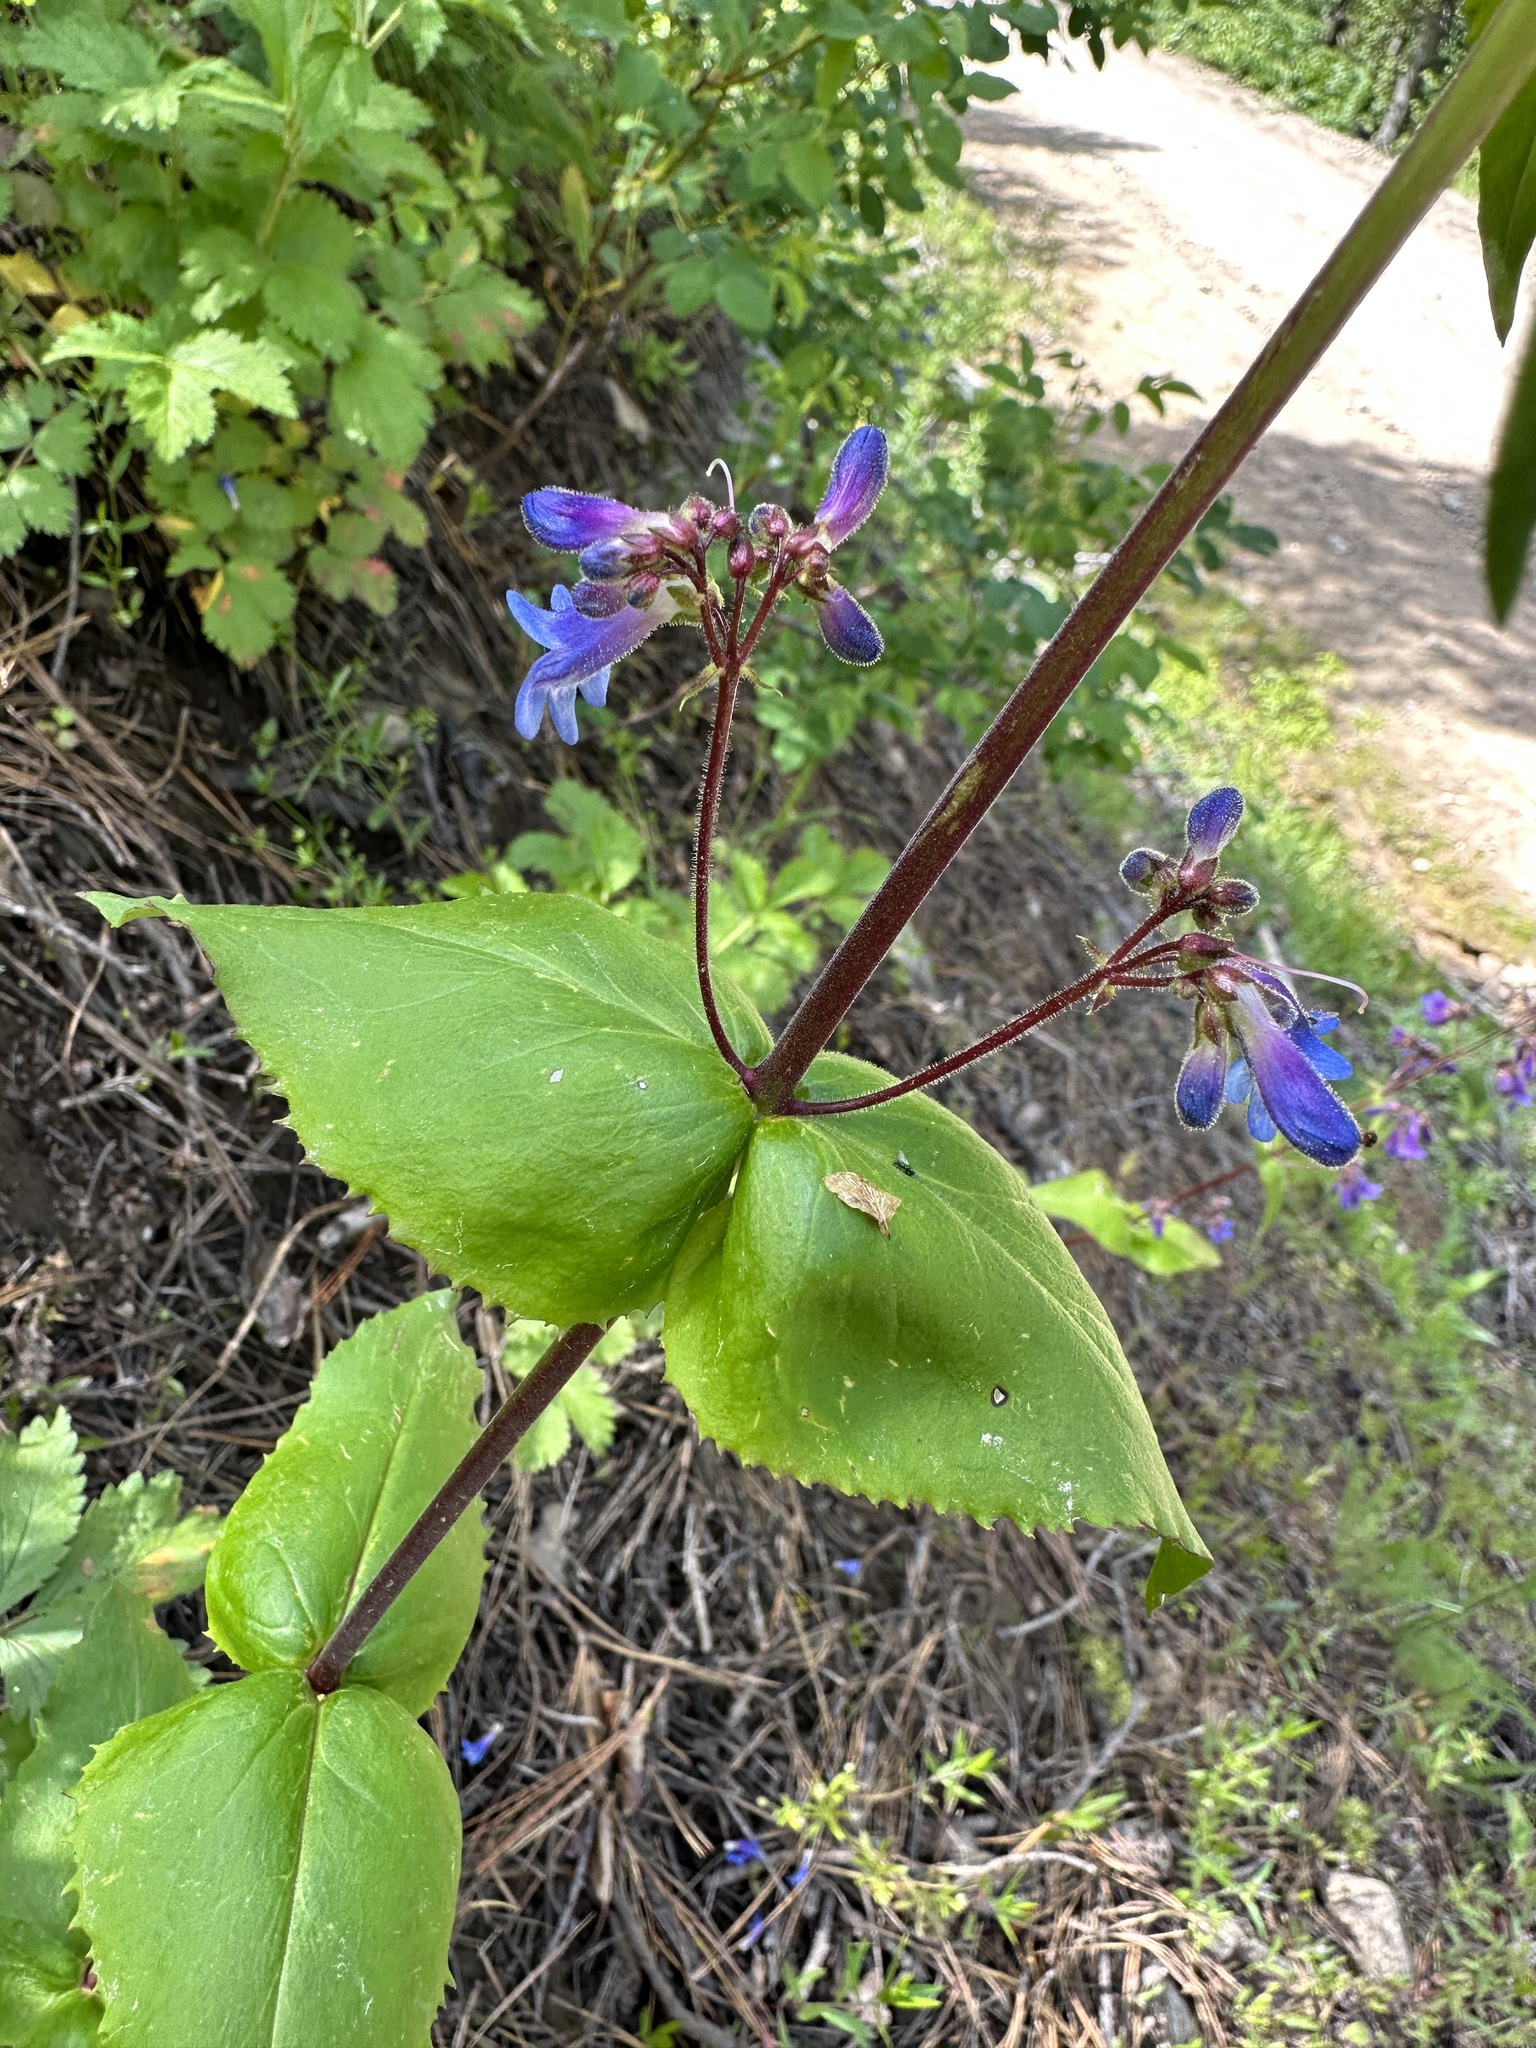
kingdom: Plantae
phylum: Tracheophyta
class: Magnoliopsida
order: Lamiales
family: Plantaginaceae
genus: Penstemon
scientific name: Penstemon wilcoxii
